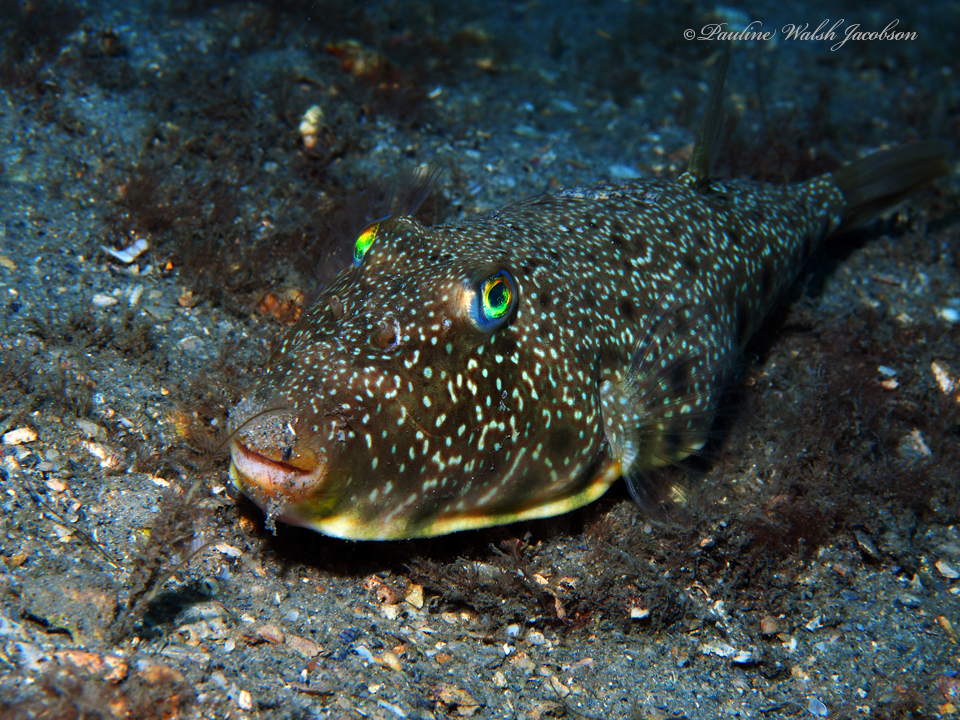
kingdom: Animalia
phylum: Chordata
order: Tetraodontiformes
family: Tetraodontidae
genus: Sphoeroides
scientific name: Sphoeroides nephelus
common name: Southern puffer
